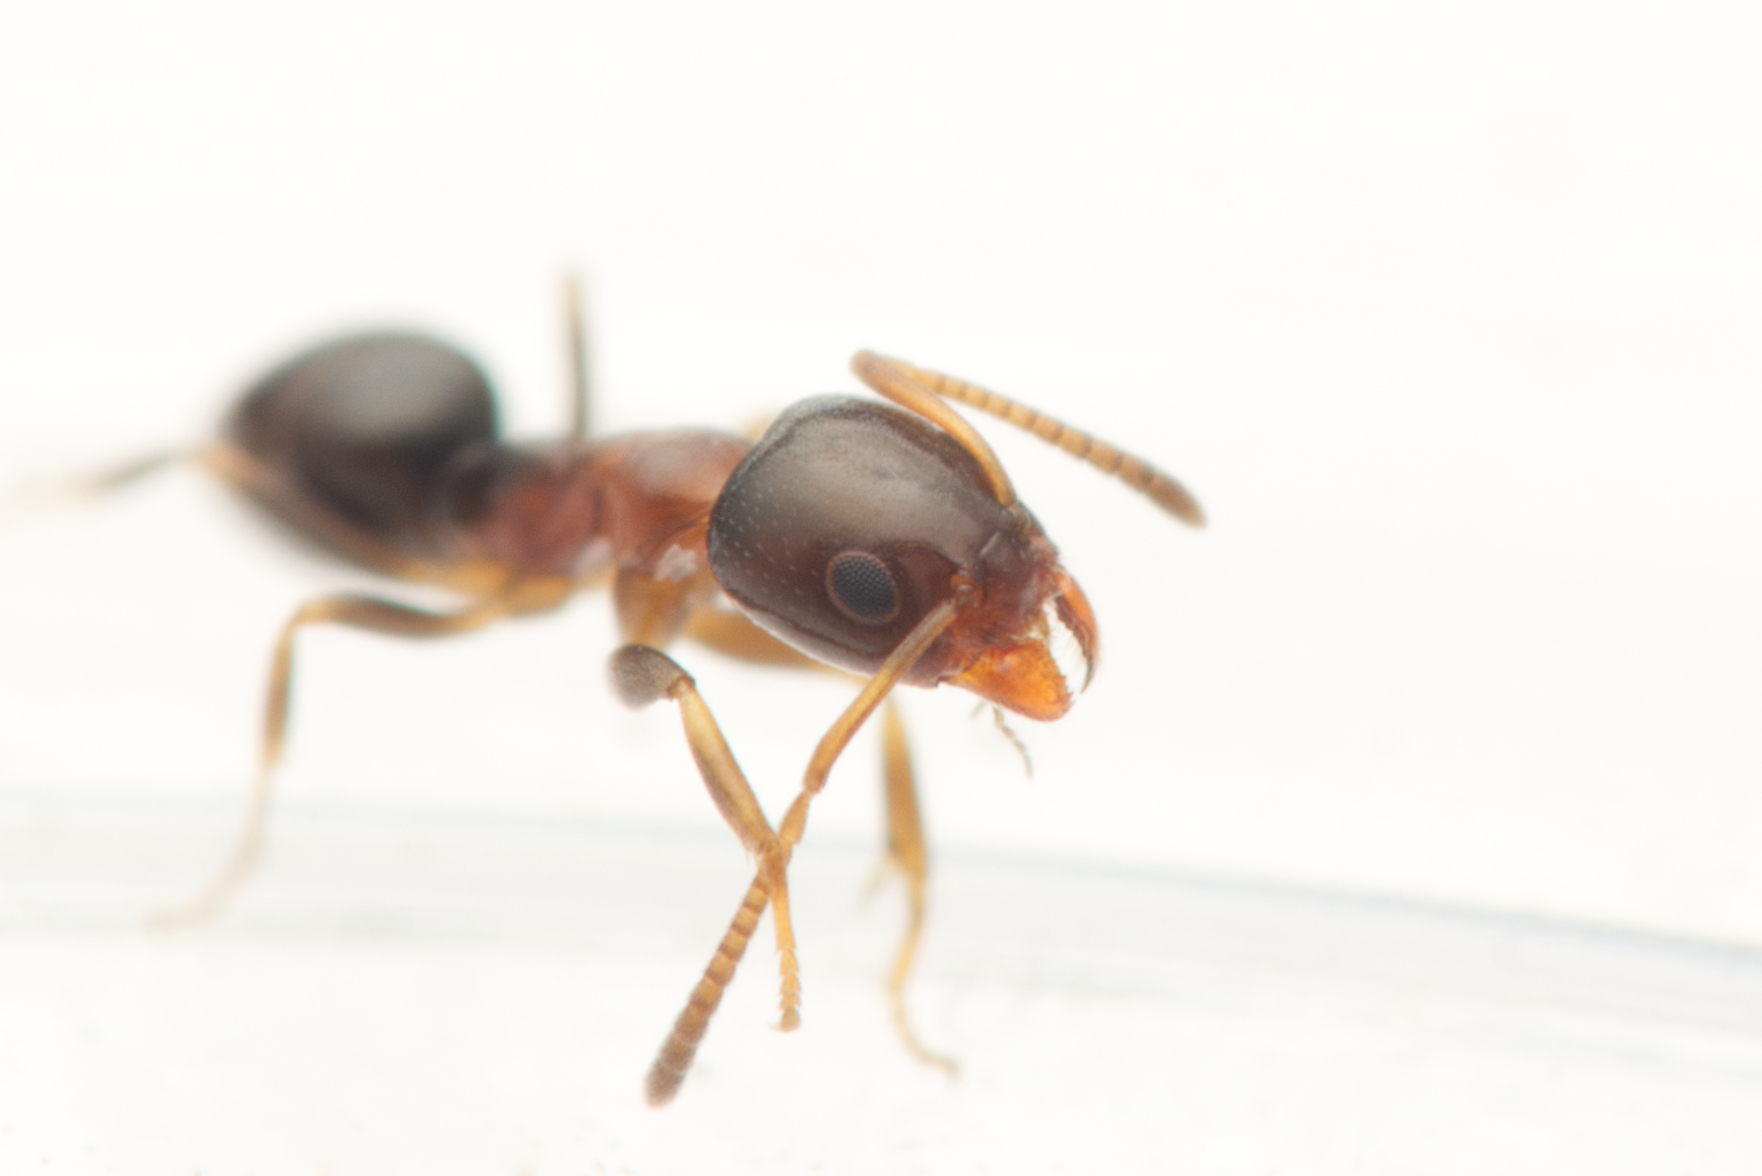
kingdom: Animalia
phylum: Arthropoda
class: Insecta
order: Hymenoptera
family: Formicidae
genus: Ochetellus
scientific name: Ochetellus glaber
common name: Ant
